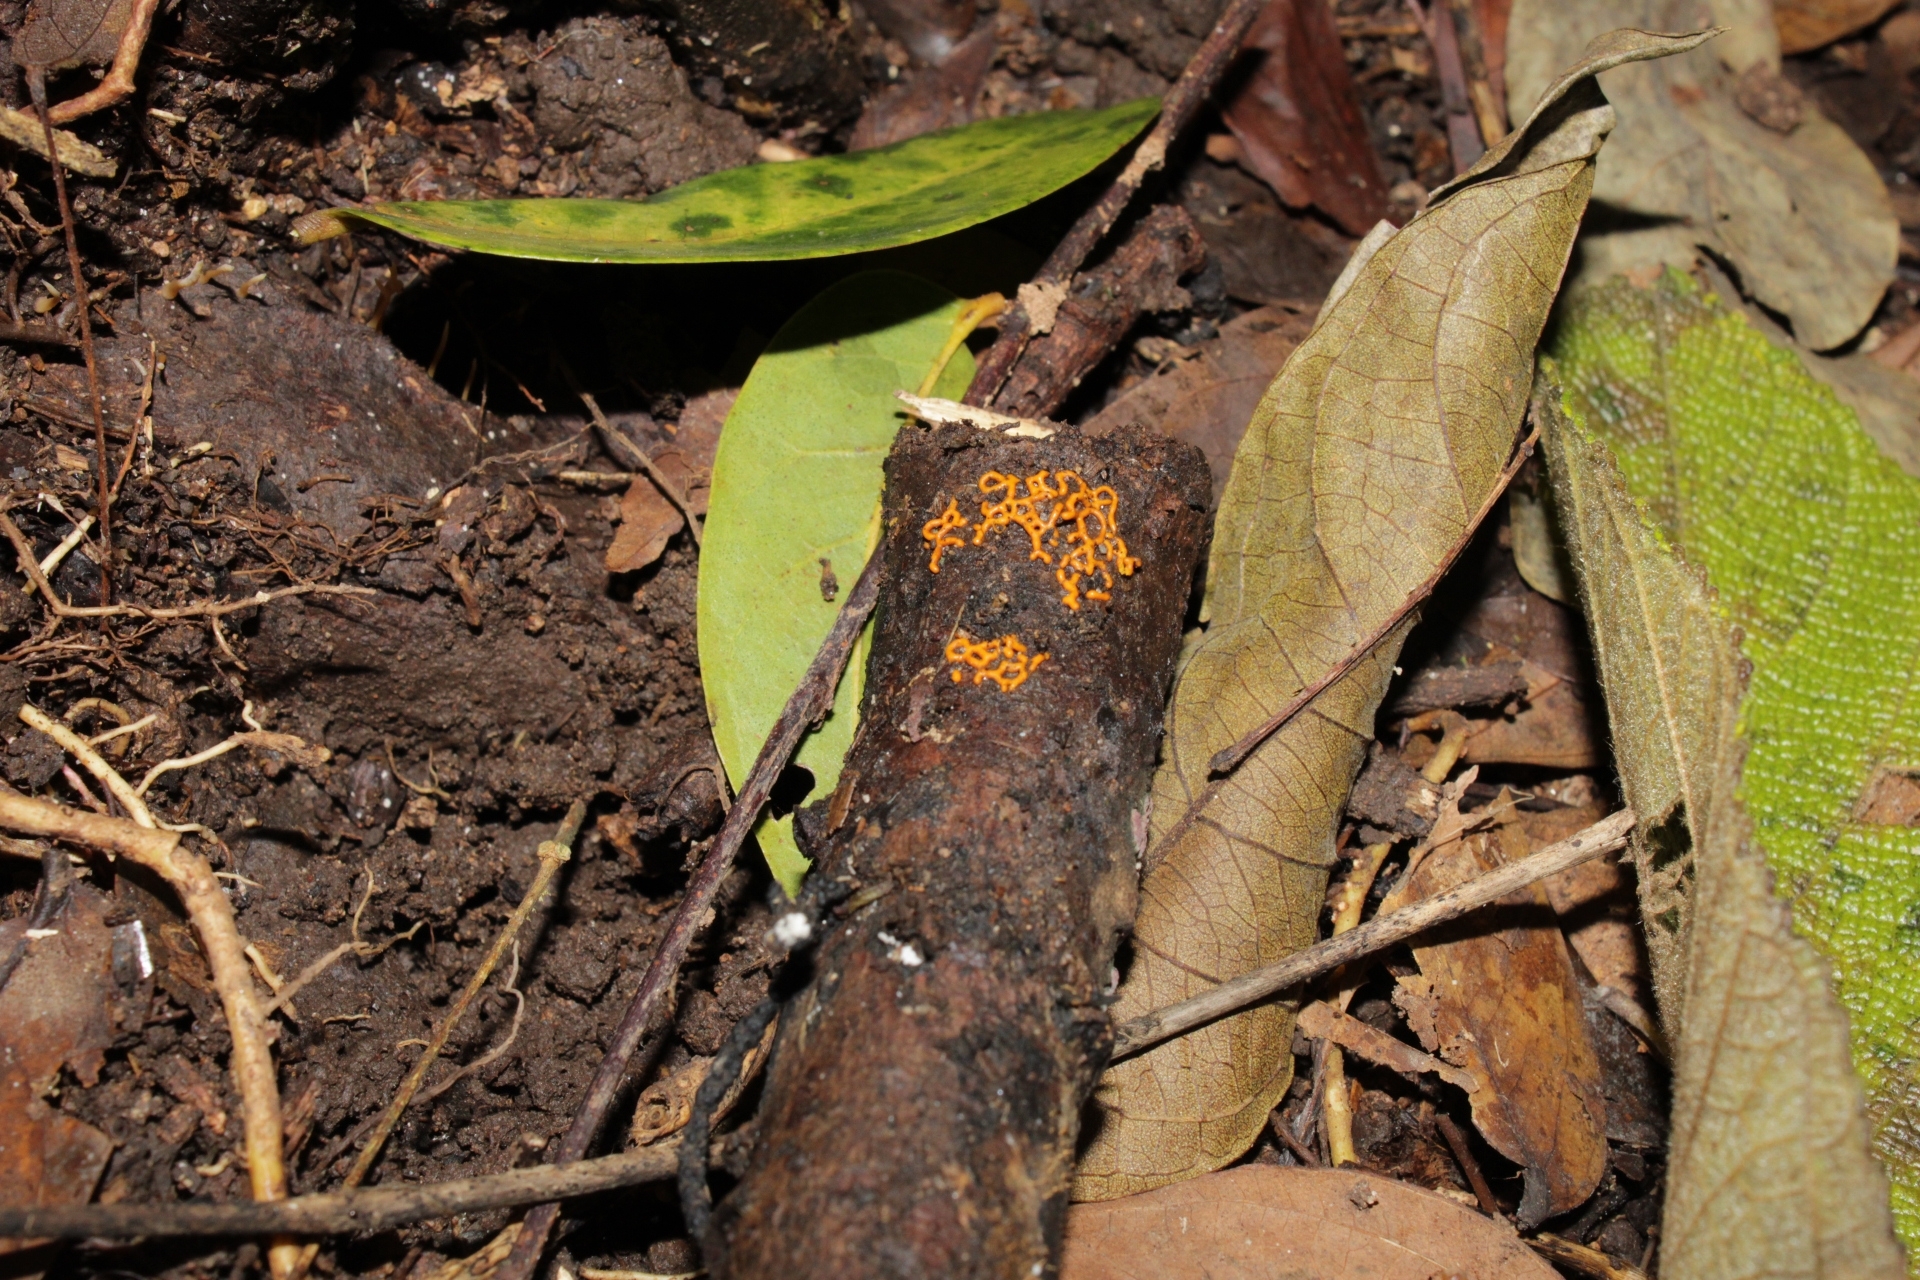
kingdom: Protozoa
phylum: Mycetozoa
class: Myxomycetes
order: Trichiales
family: Arcyriaceae
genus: Hemitrichia
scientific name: Hemitrichia serpula
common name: Pretzel slime mold
